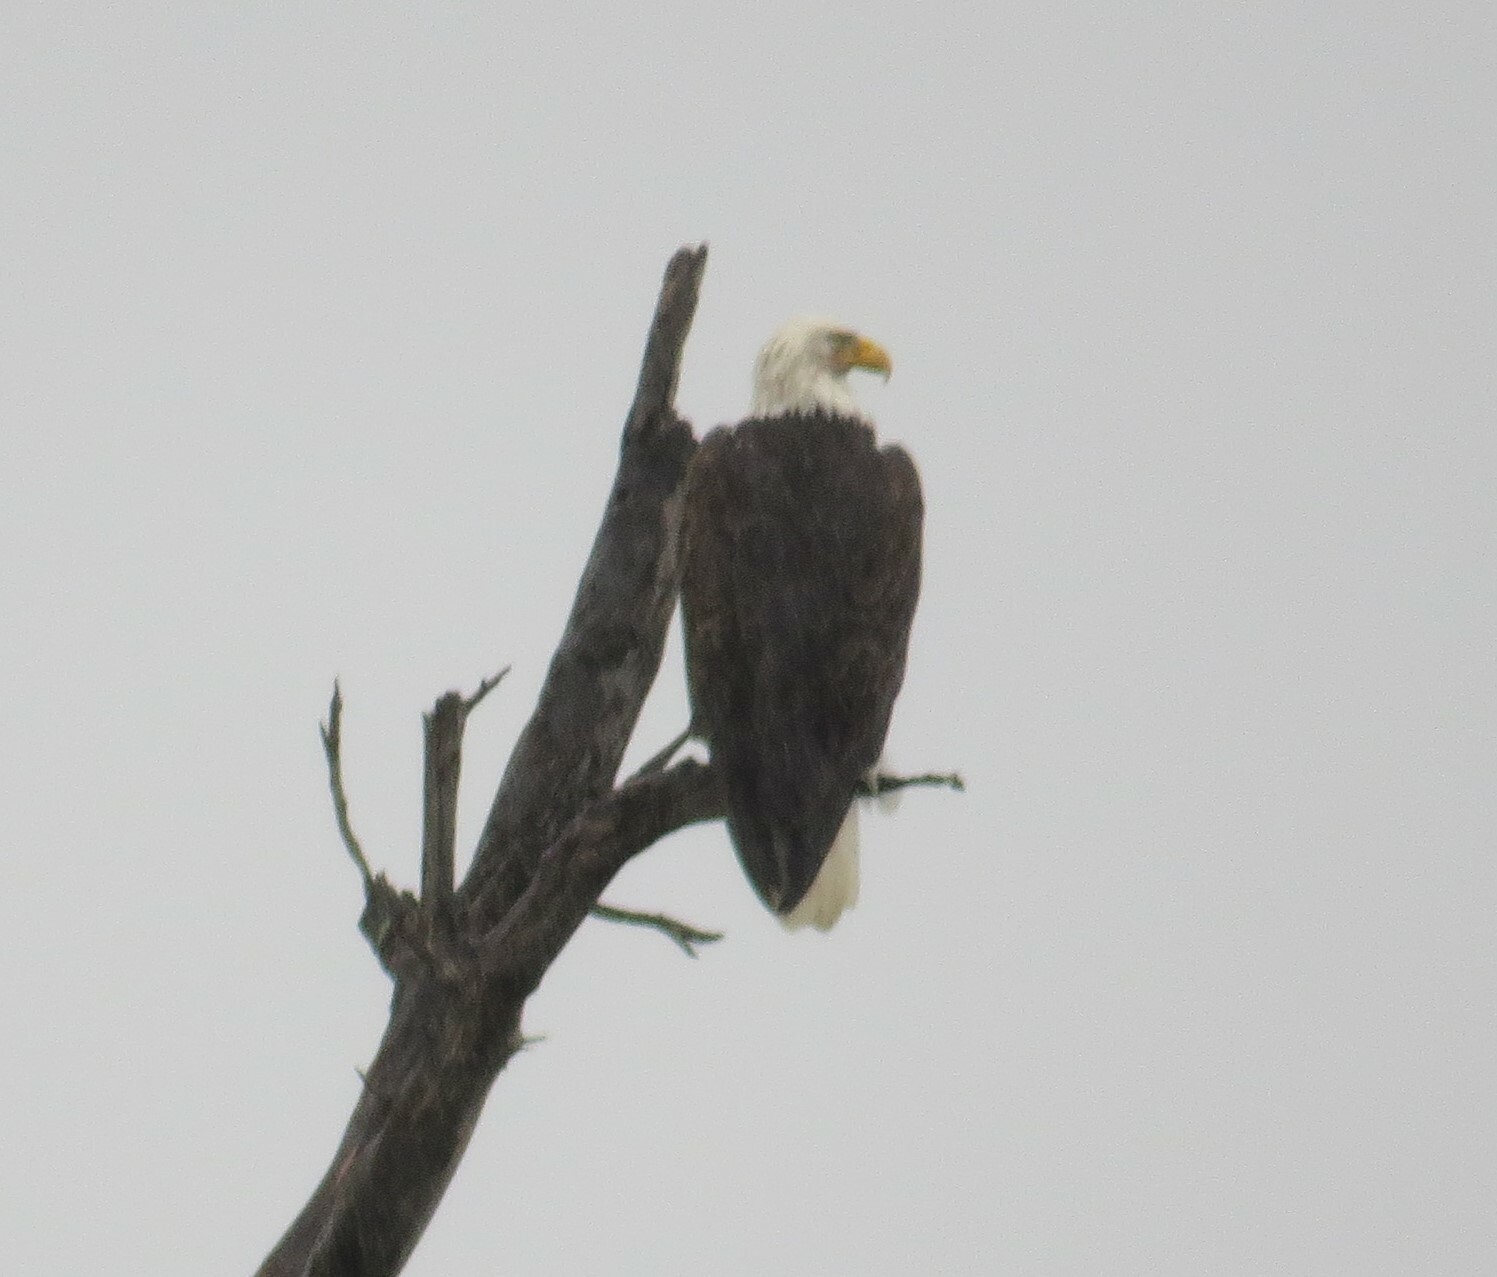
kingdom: Animalia
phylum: Chordata
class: Aves
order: Accipitriformes
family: Accipitridae
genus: Haliaeetus
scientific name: Haliaeetus leucocephalus
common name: Bald eagle
